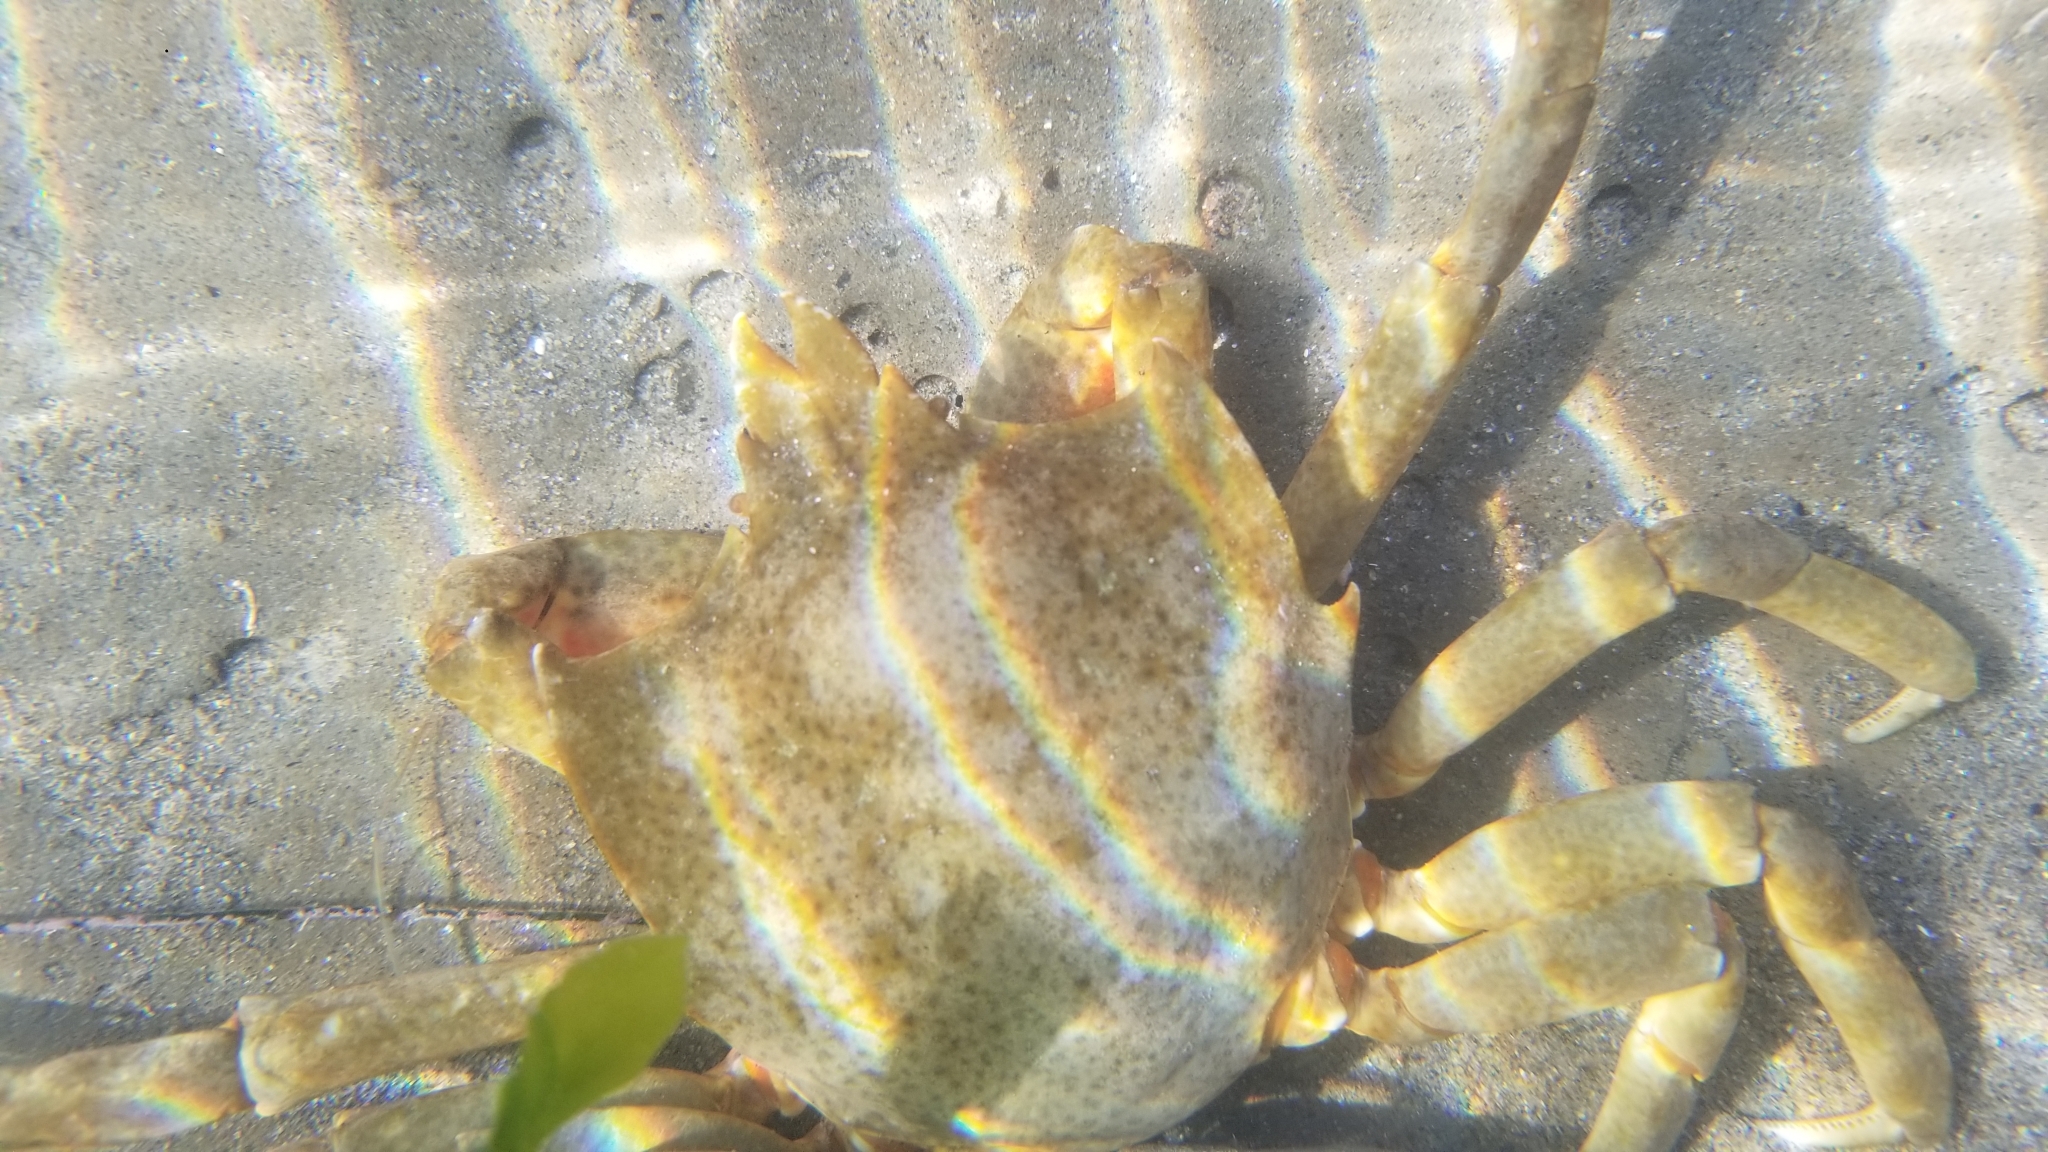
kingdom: Animalia
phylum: Arthropoda
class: Malacostraca
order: Decapoda
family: Epialtidae
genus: Pugettia
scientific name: Pugettia producta
